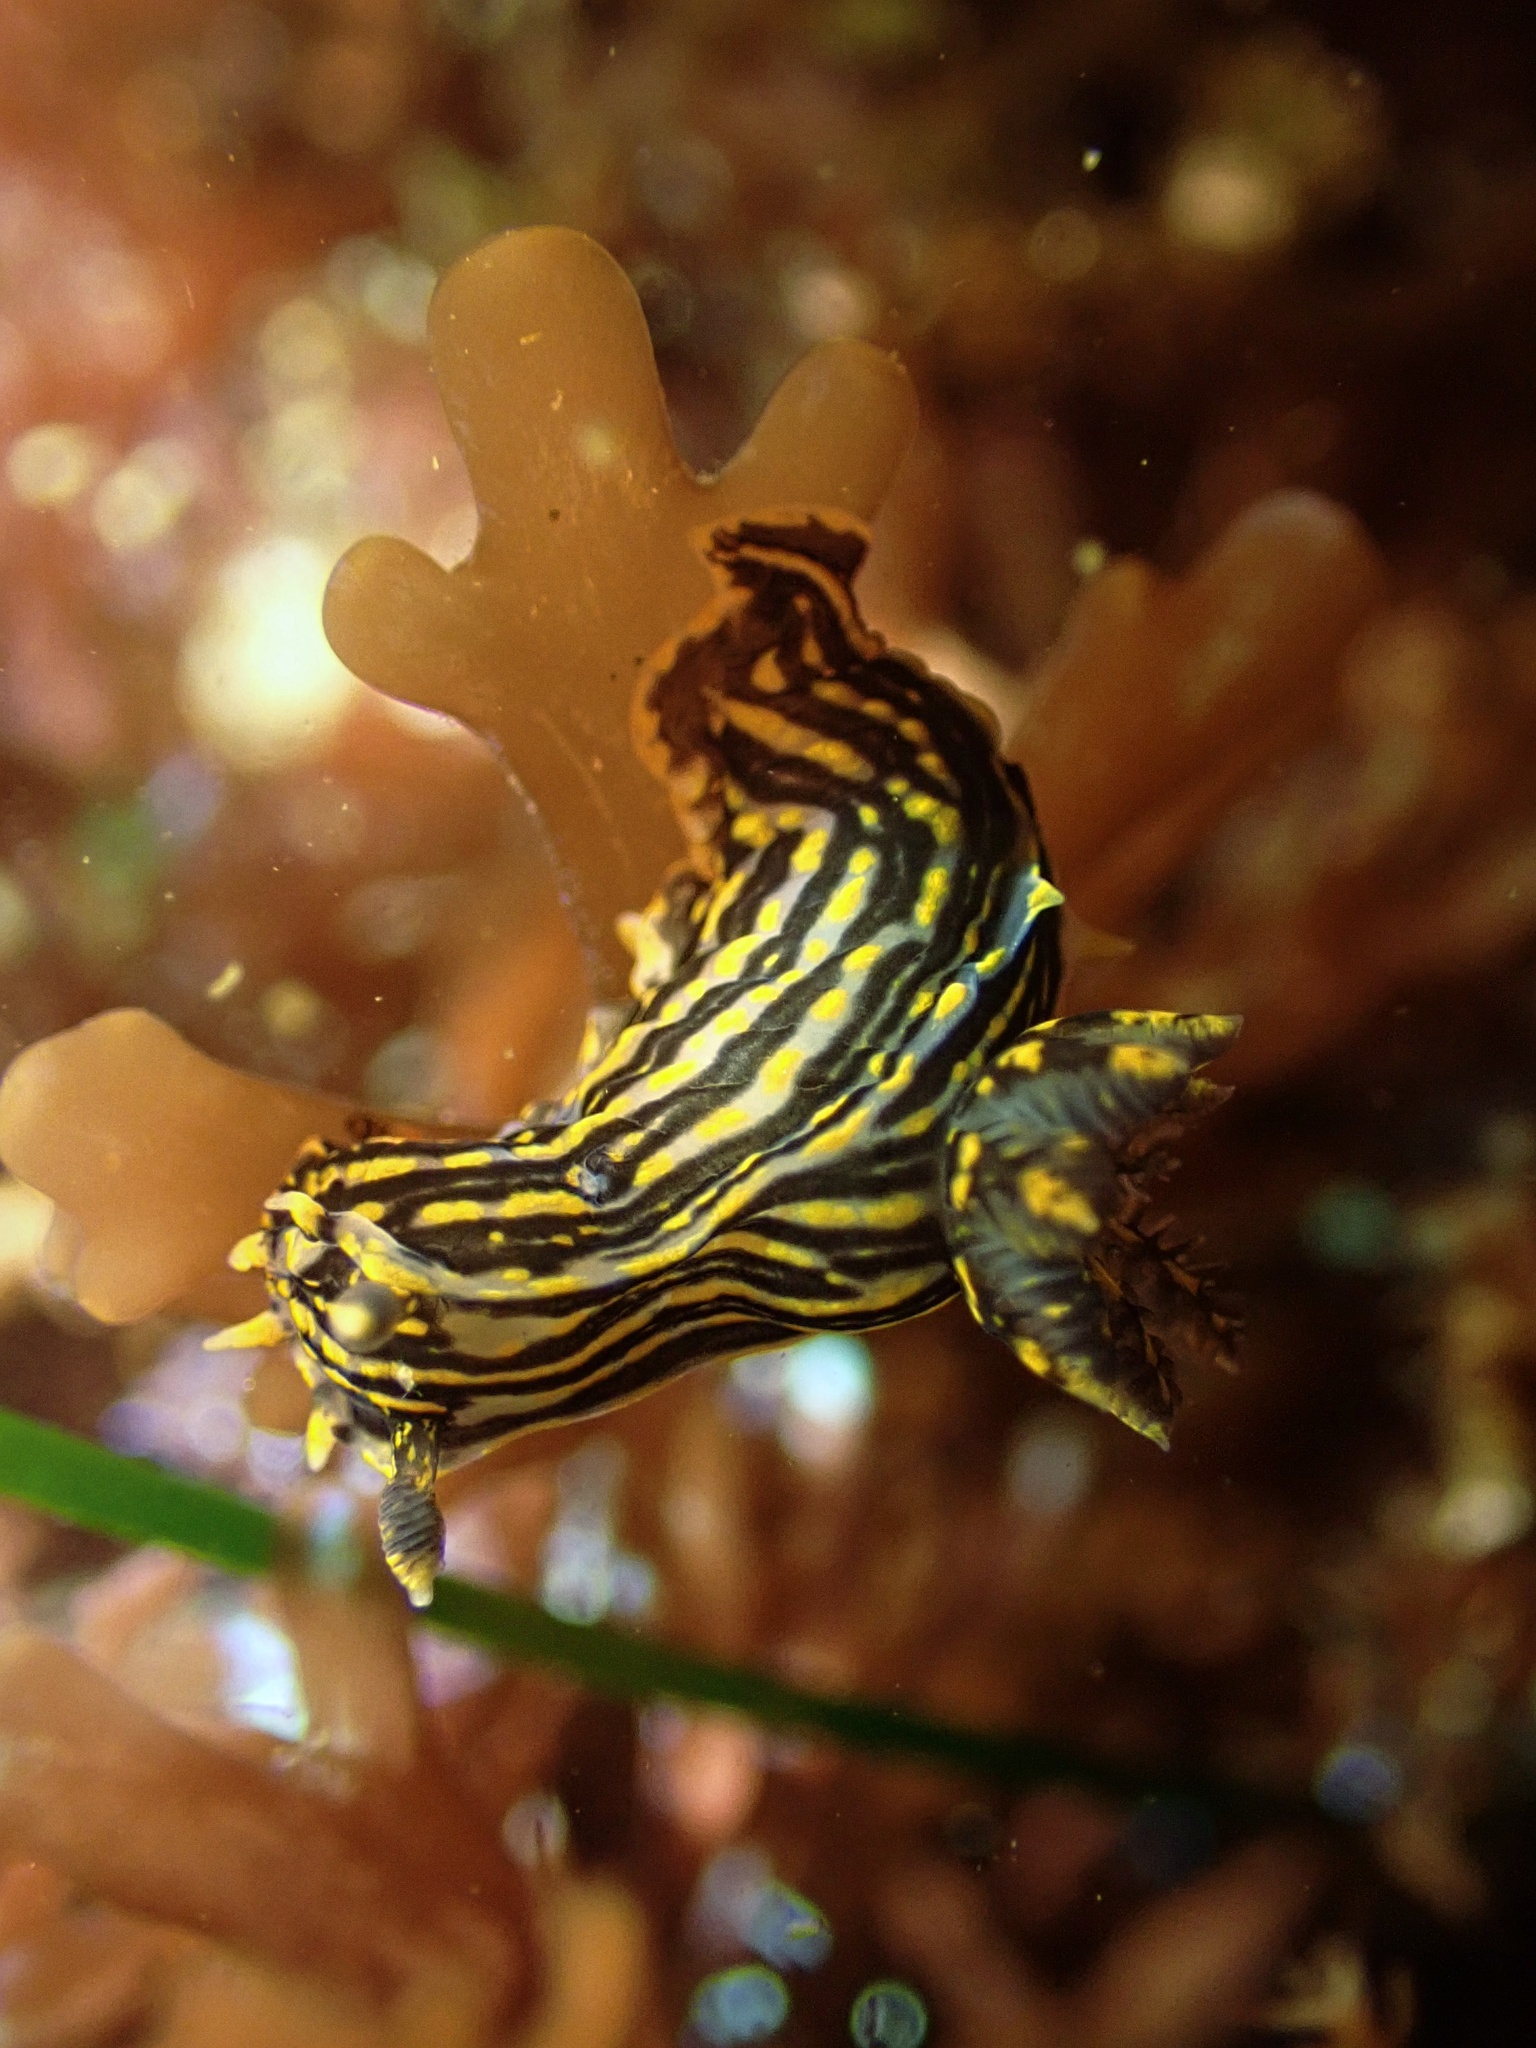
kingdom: Animalia
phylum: Mollusca
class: Gastropoda
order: Nudibranchia
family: Polyceridae
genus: Polycera
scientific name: Polycera atra
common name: Orange-spike polycera
